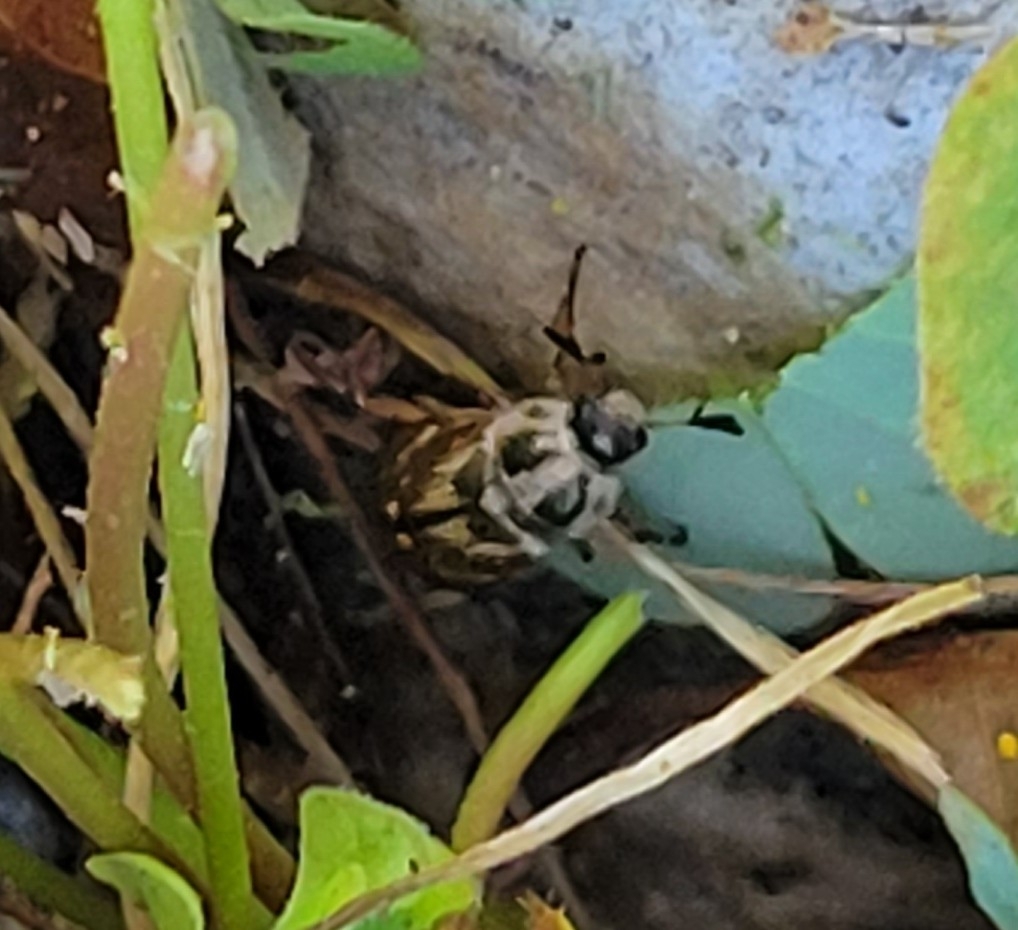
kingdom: Animalia
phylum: Arthropoda
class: Insecta
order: Coleoptera
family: Scarabaeidae
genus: Exomala
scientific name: Exomala orientalis
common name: Oriental beetle
